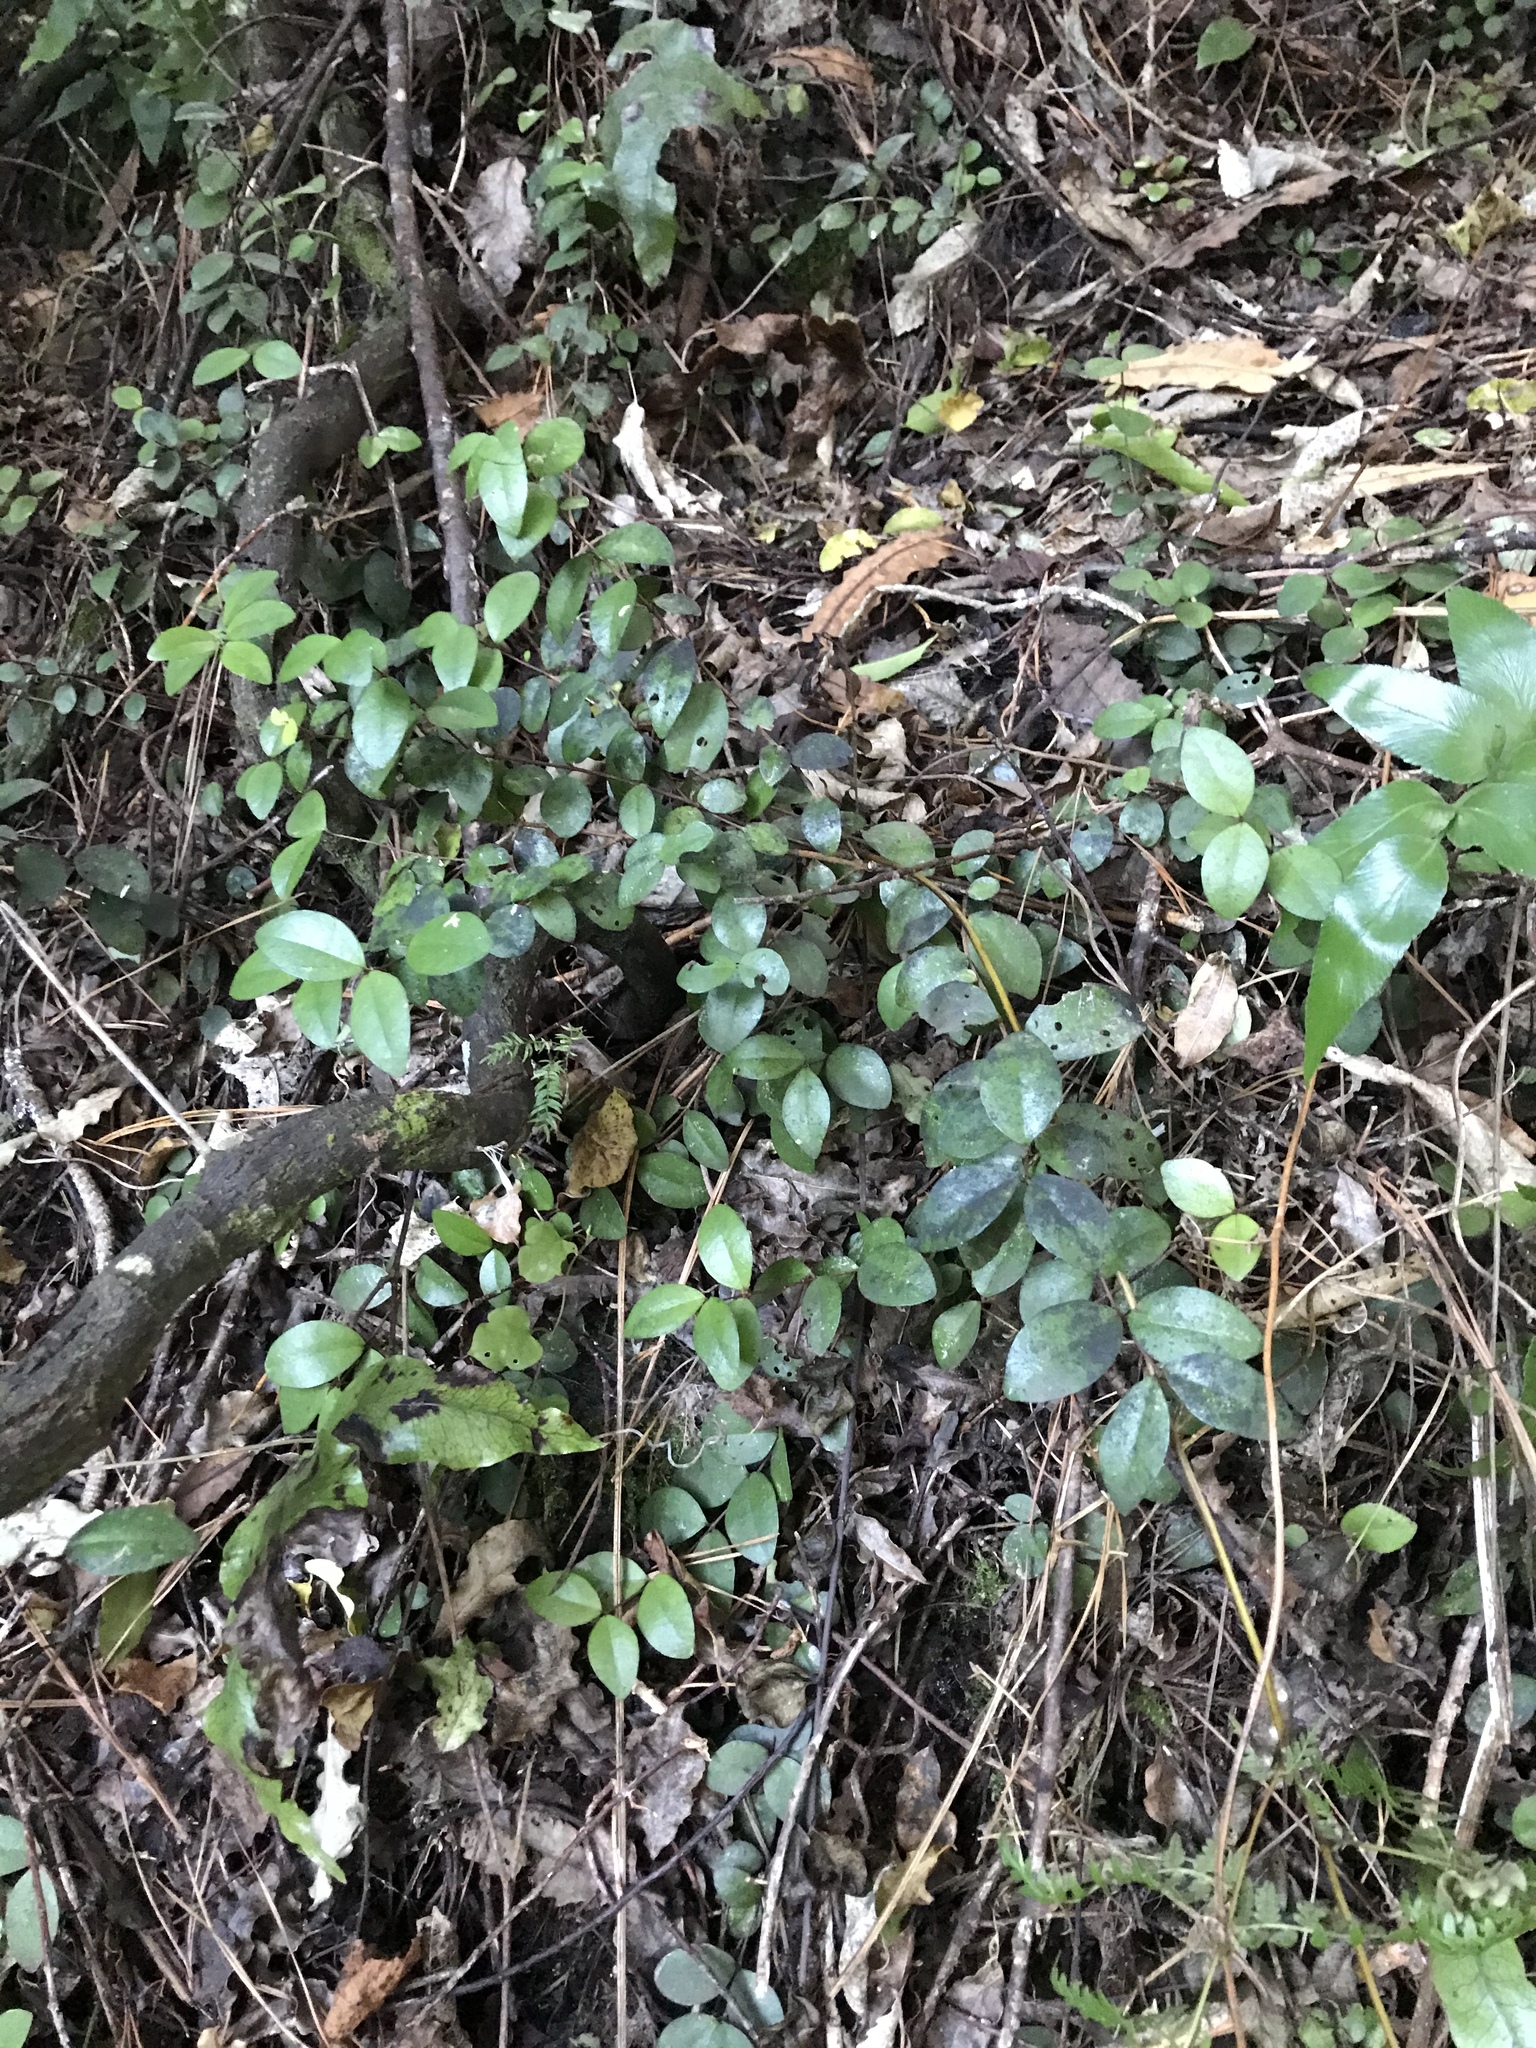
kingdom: Plantae
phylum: Tracheophyta
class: Magnoliopsida
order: Myrtales
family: Myrtaceae
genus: Metrosideros
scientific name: Metrosideros fulgens
